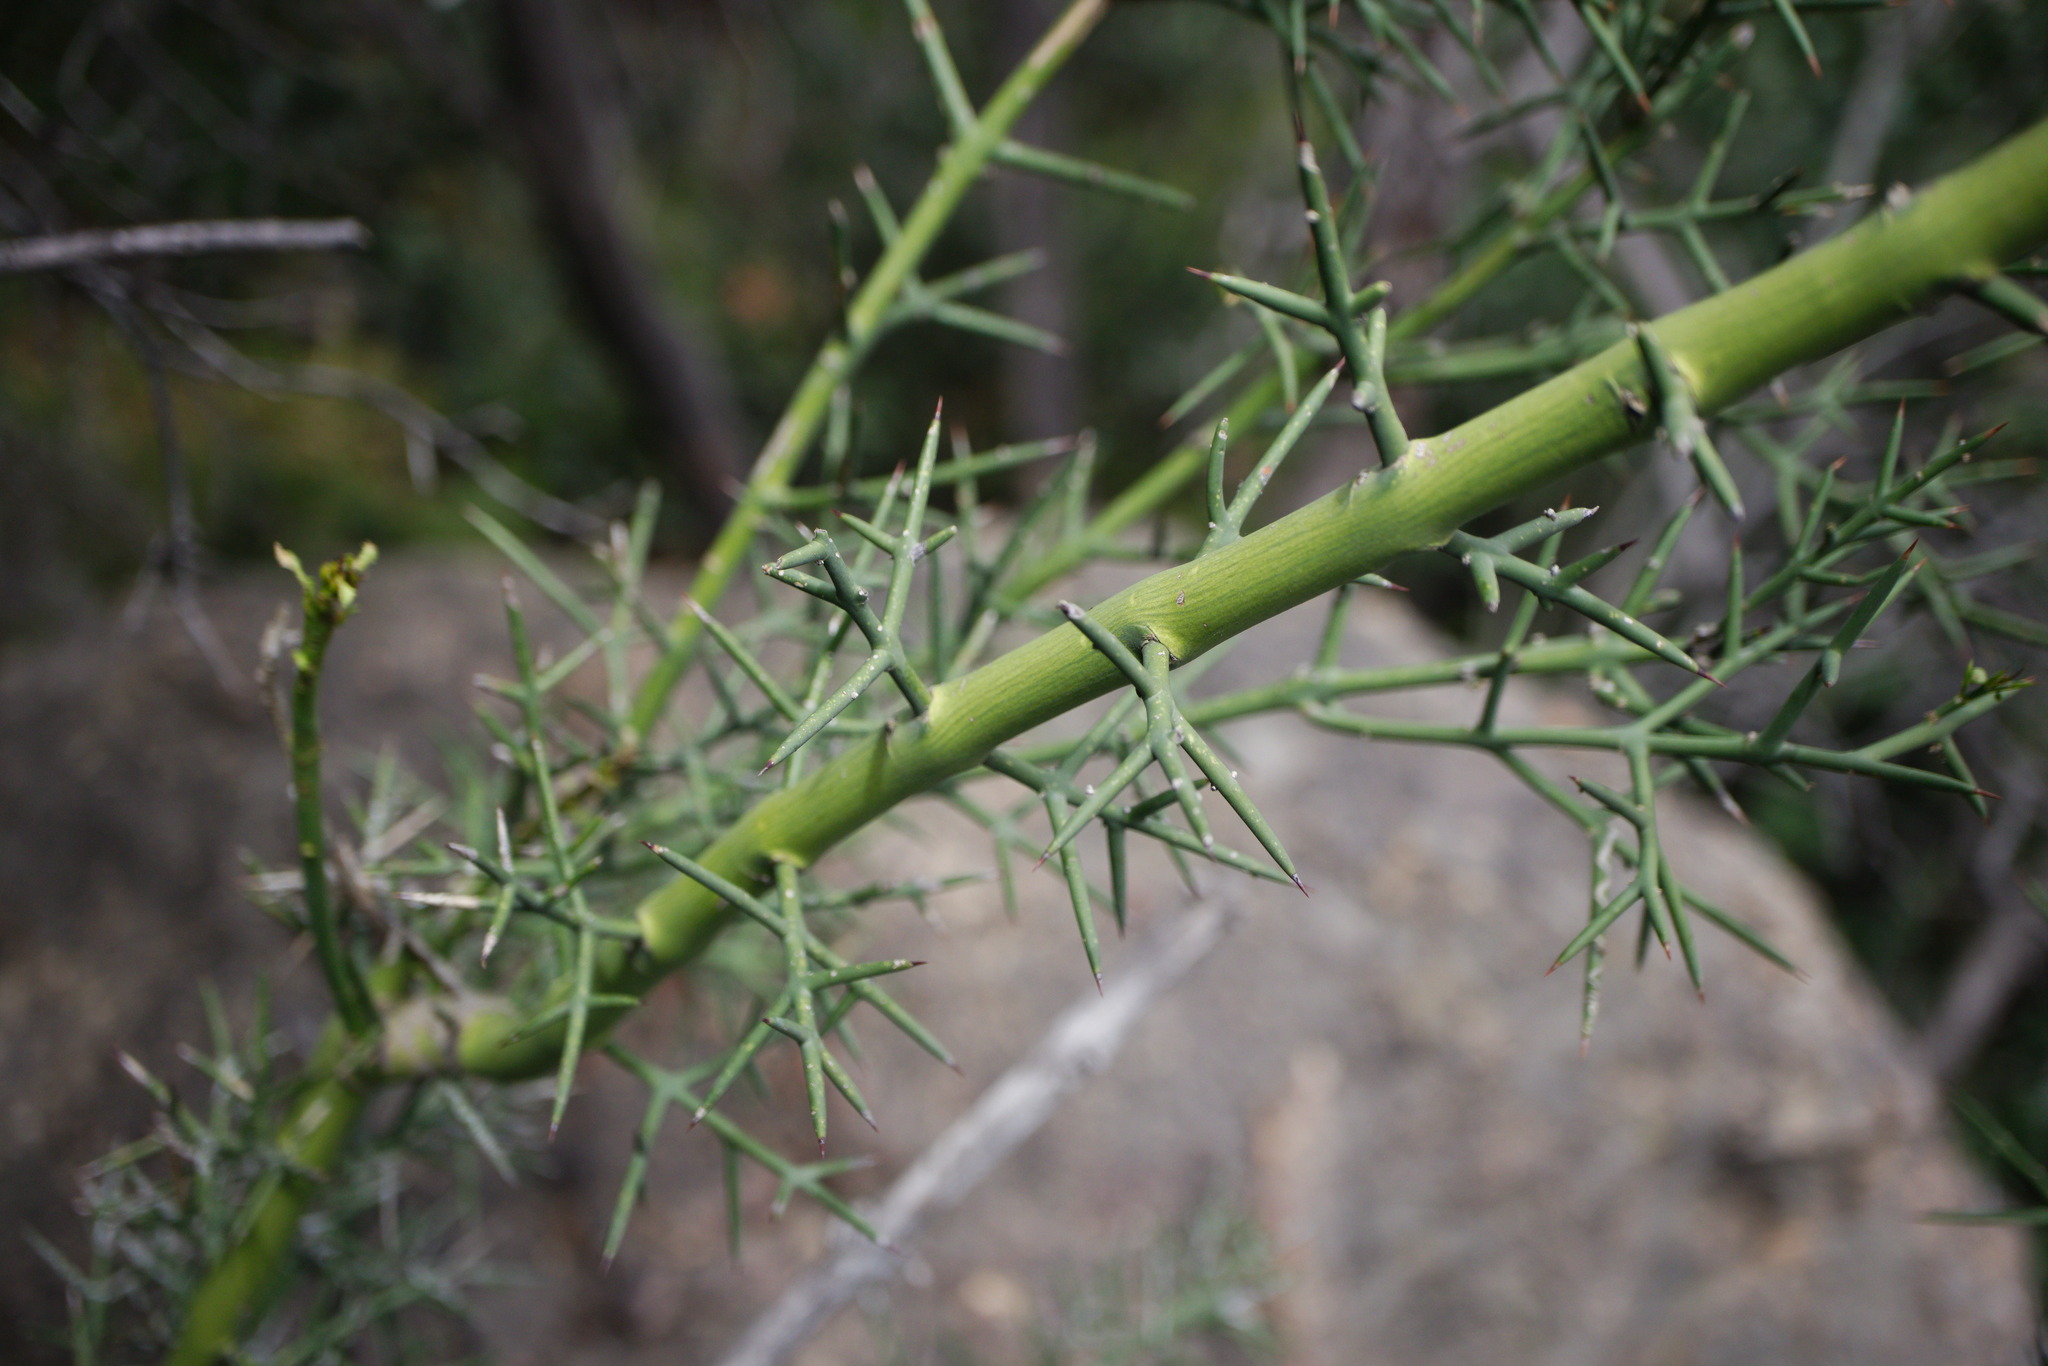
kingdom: Plantae
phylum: Tracheophyta
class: Magnoliopsida
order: Rosales
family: Rhamnaceae
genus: Colletia
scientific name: Colletia hystrix
